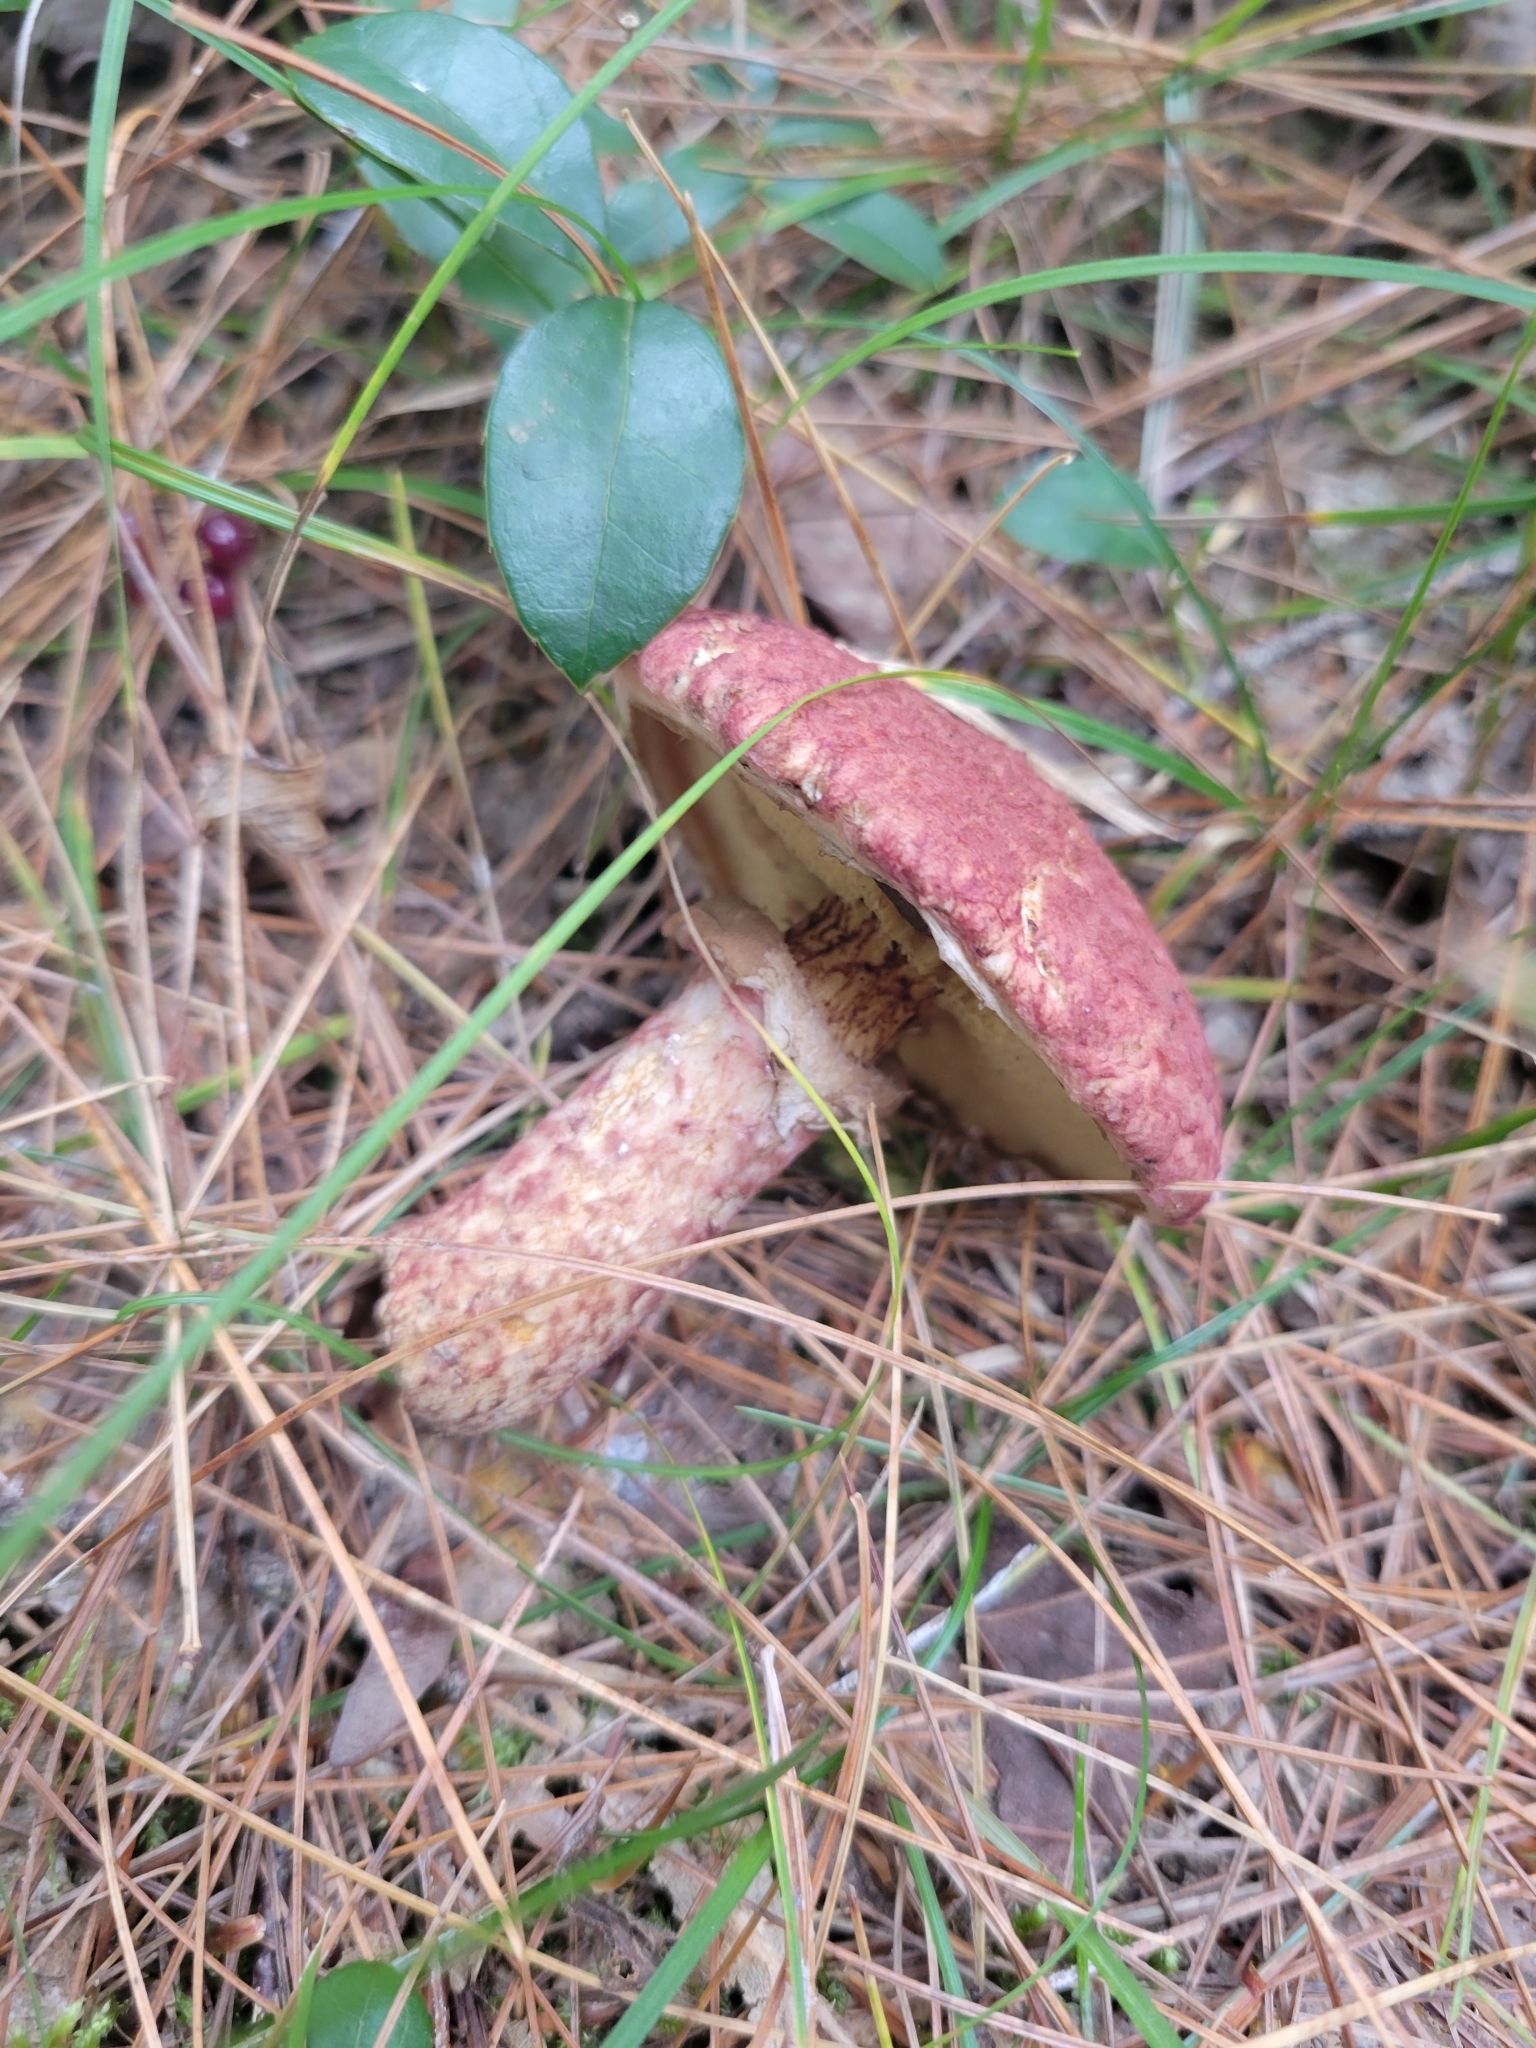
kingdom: Fungi
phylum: Basidiomycota
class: Agaricomycetes
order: Boletales
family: Suillaceae
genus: Suillus
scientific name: Suillus spraguei
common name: Painted suillus
